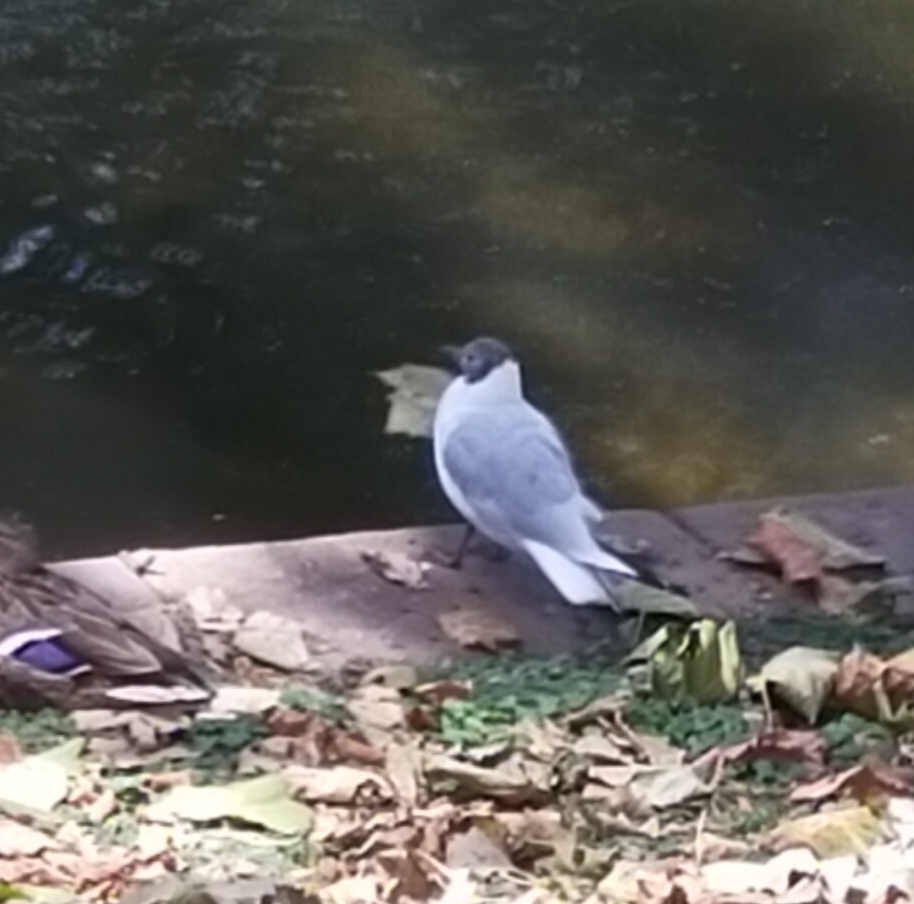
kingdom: Animalia
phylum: Chordata
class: Aves
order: Charadriiformes
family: Laridae
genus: Chroicocephalus
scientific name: Chroicocephalus ridibundus
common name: Black-headed gull
